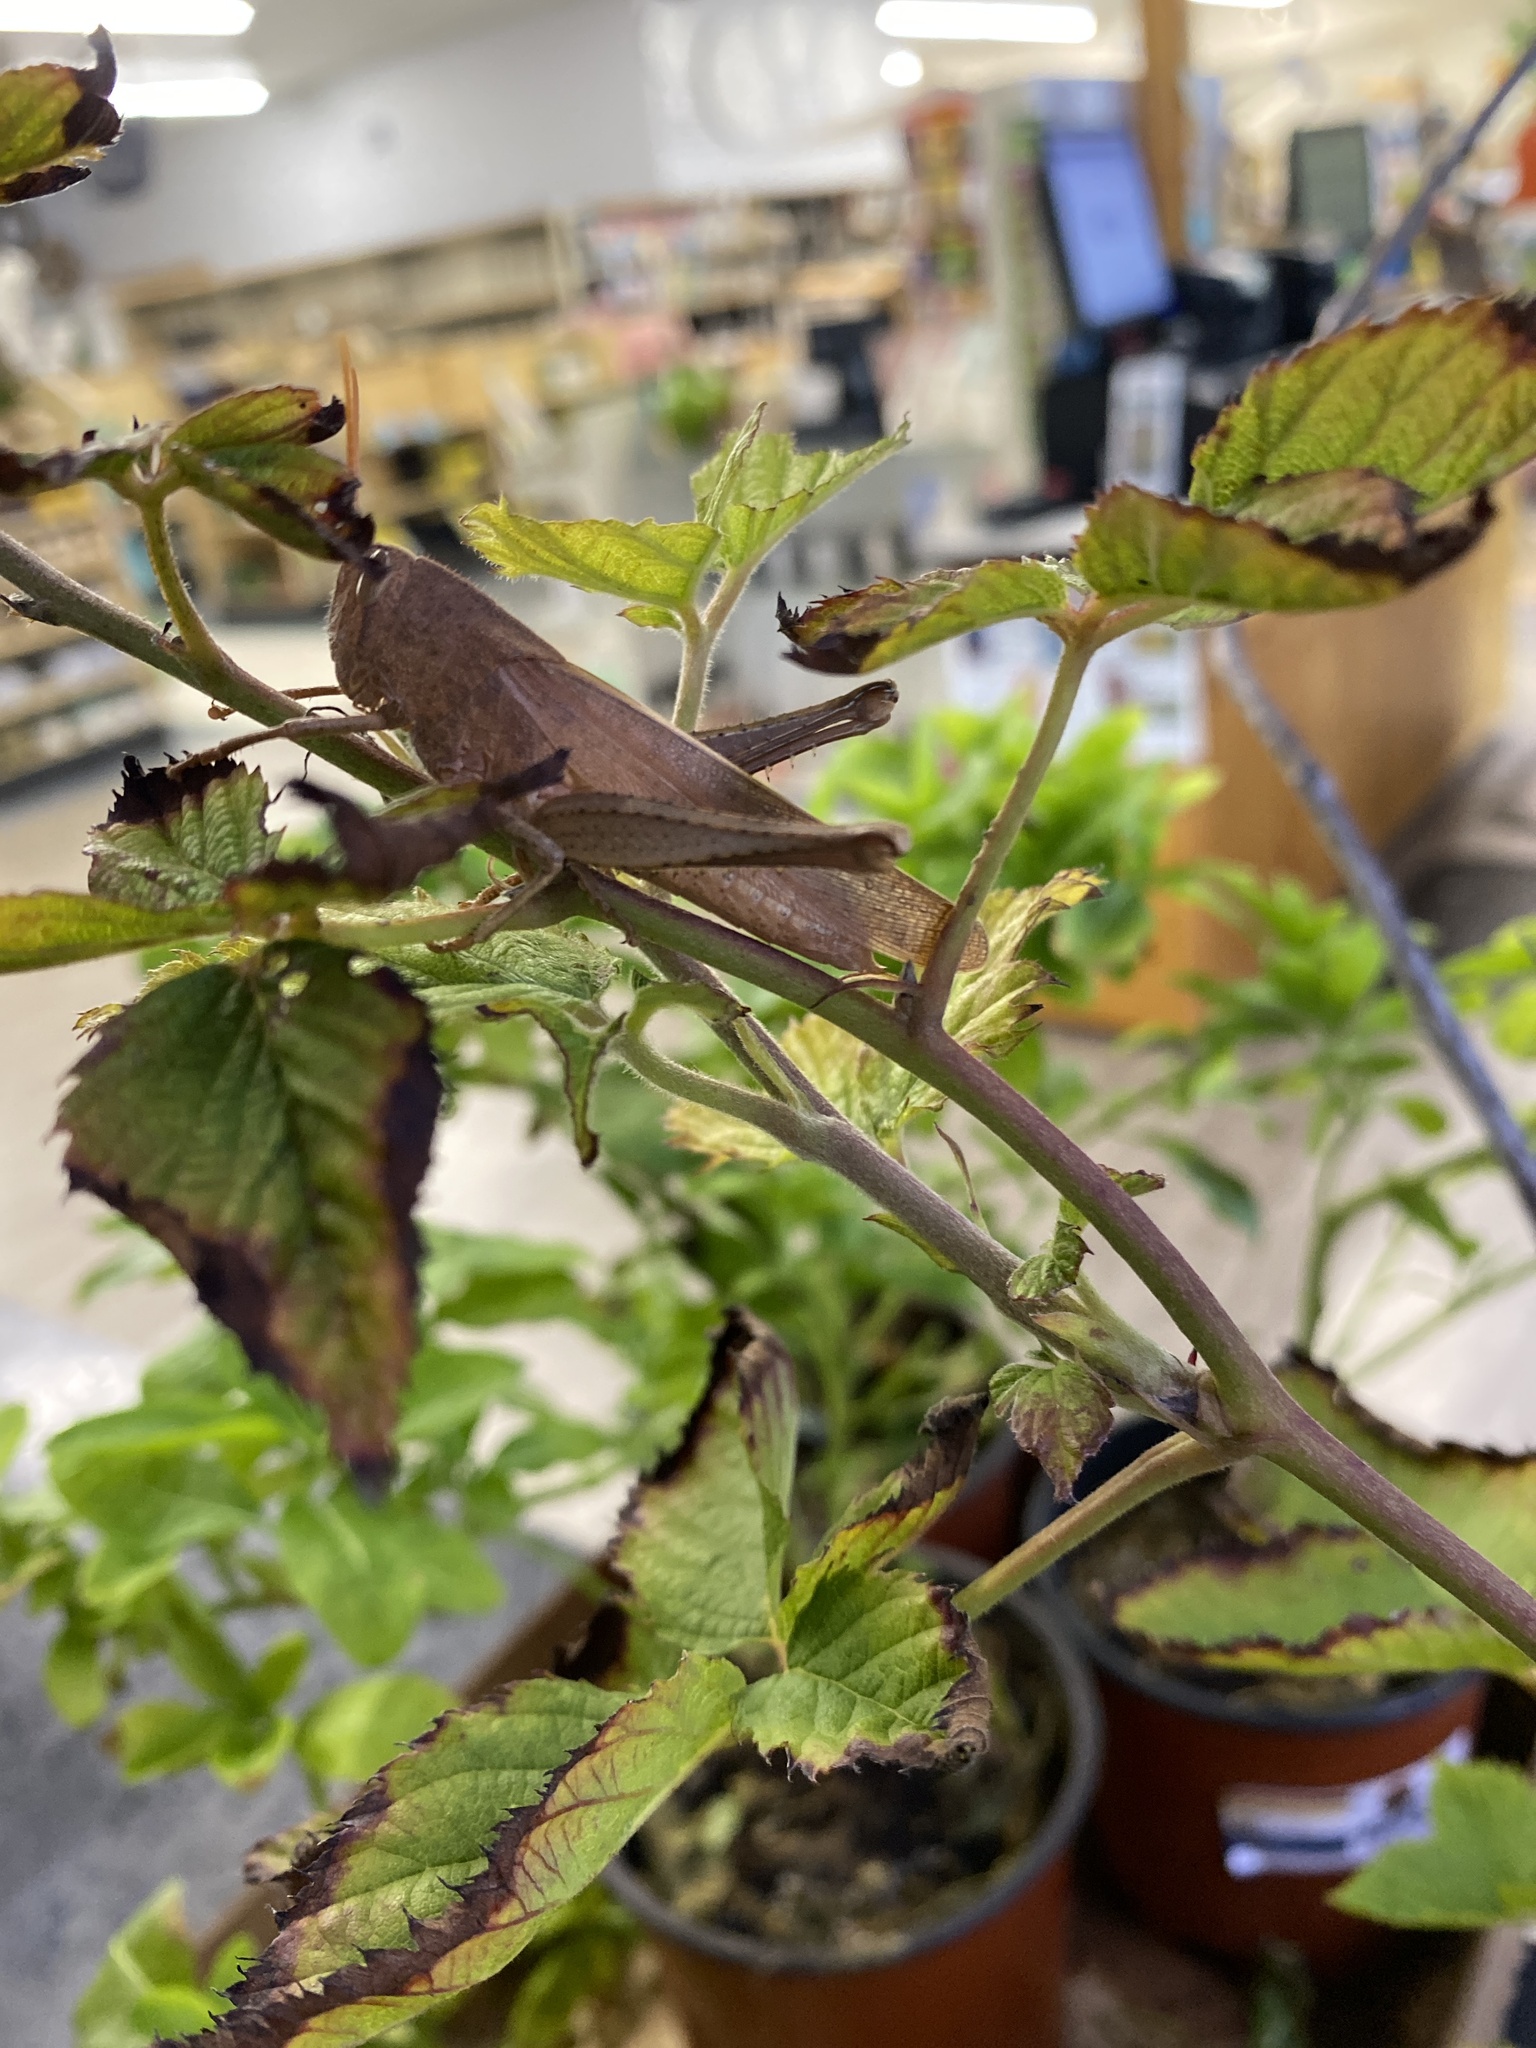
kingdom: Animalia
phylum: Arthropoda
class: Insecta
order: Orthoptera
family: Acrididae
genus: Schistocerca
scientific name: Schistocerca damnifica
